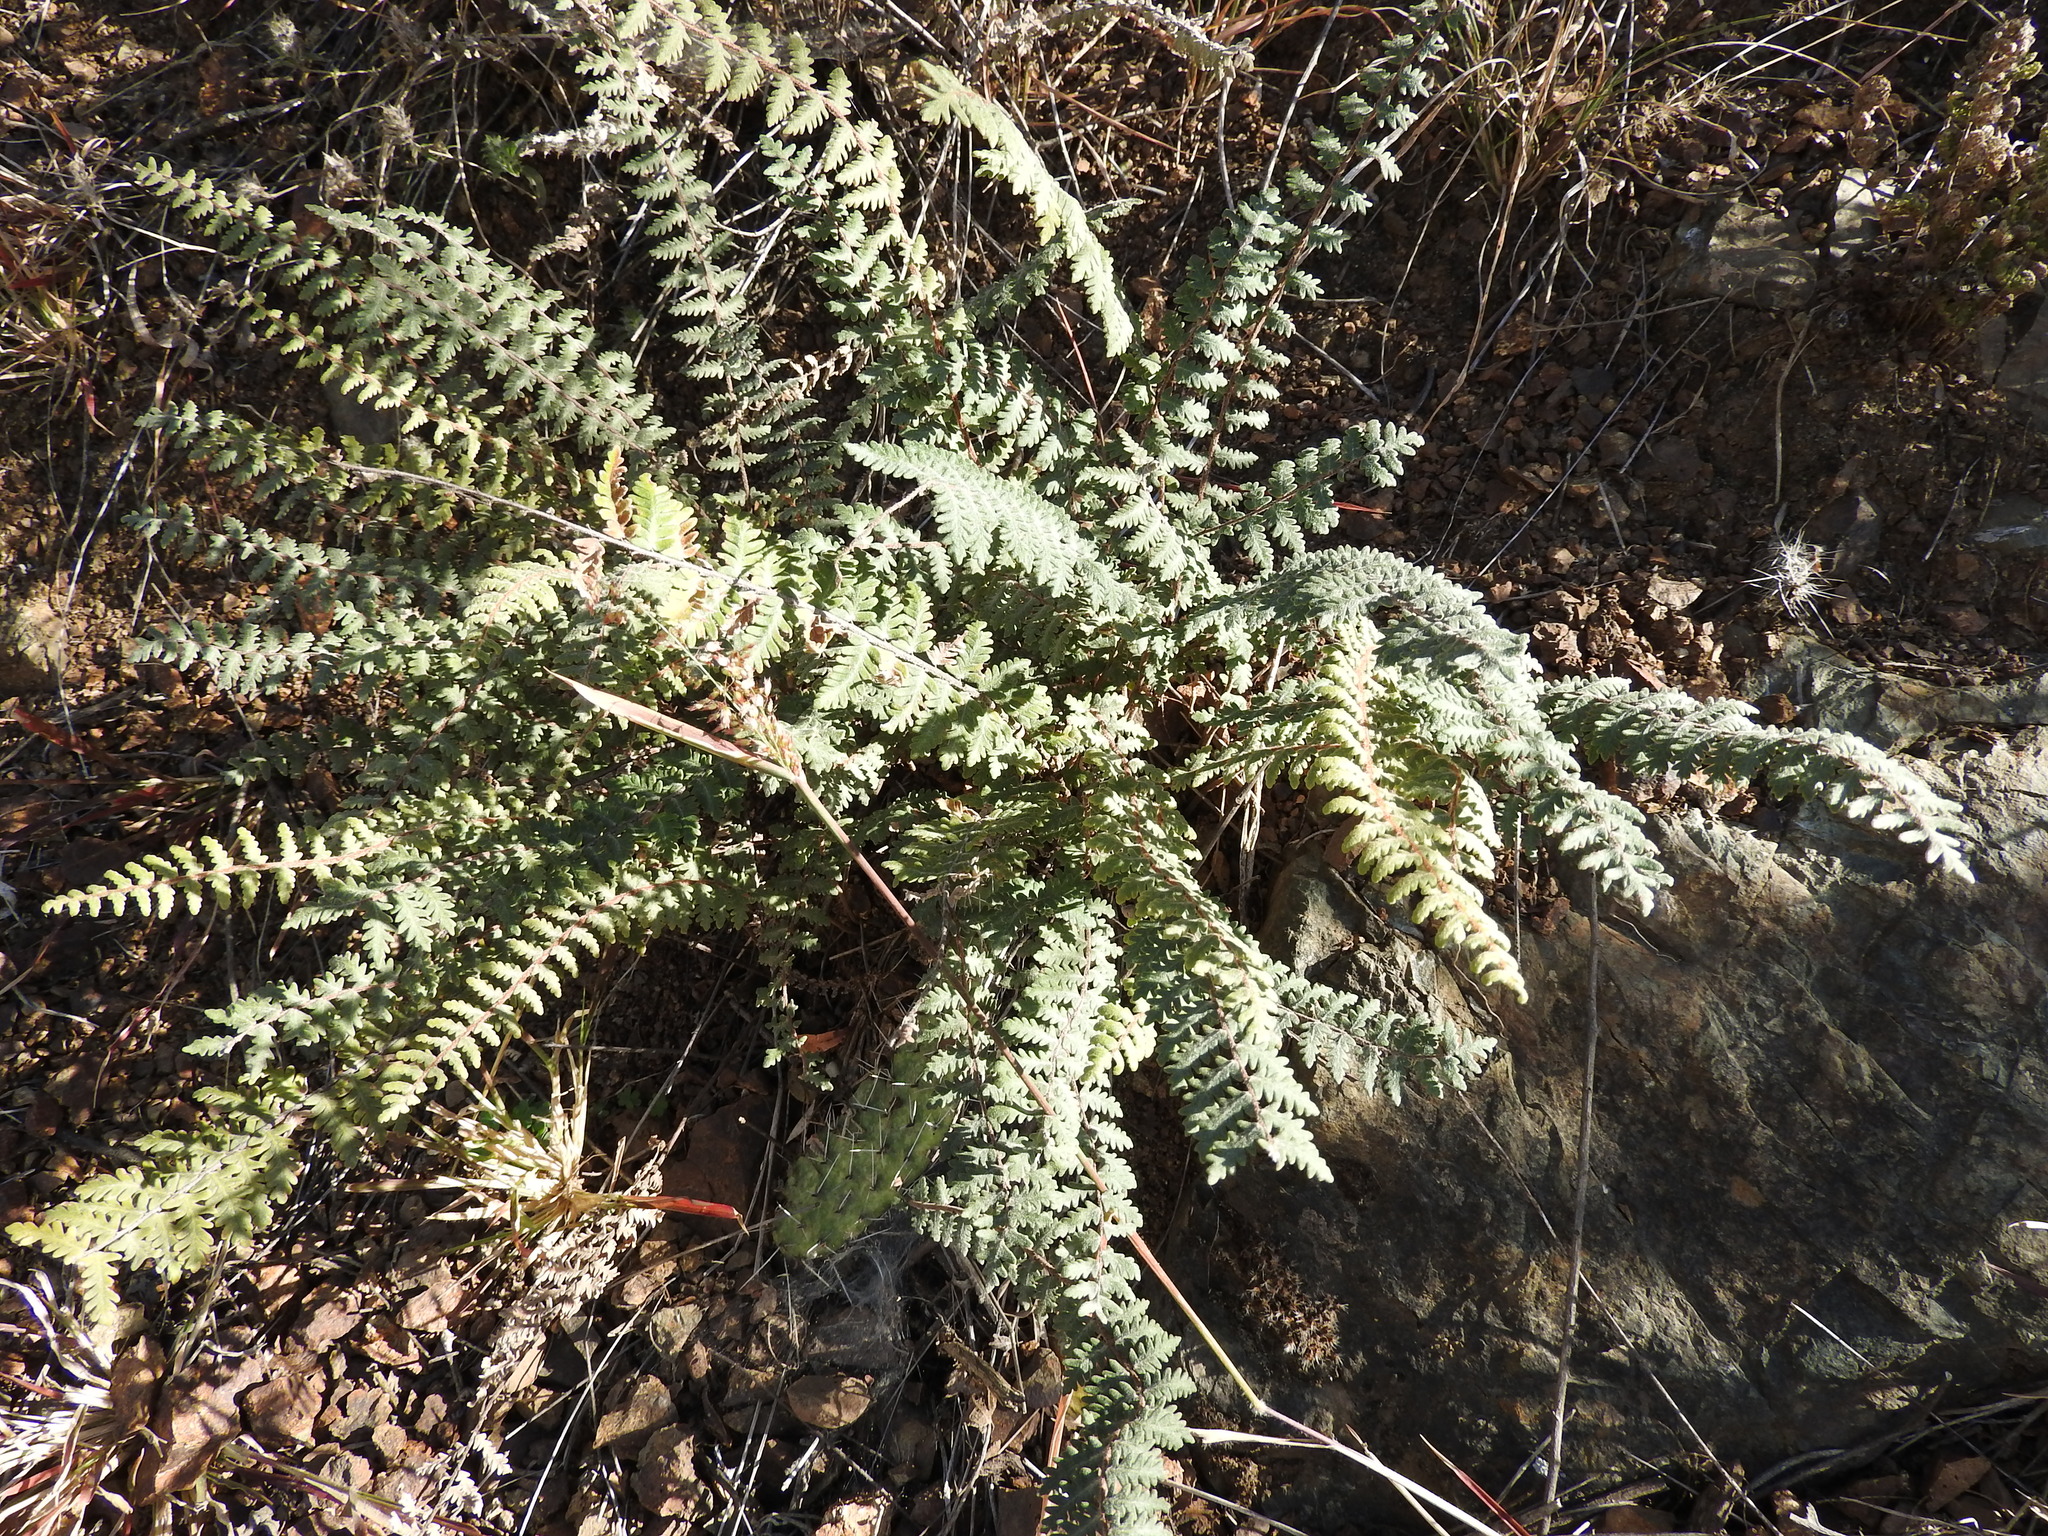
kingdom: Plantae
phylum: Tracheophyta
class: Polypodiopsida
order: Polypodiales
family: Pteridaceae
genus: Myriopteris
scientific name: Myriopteris aurea
